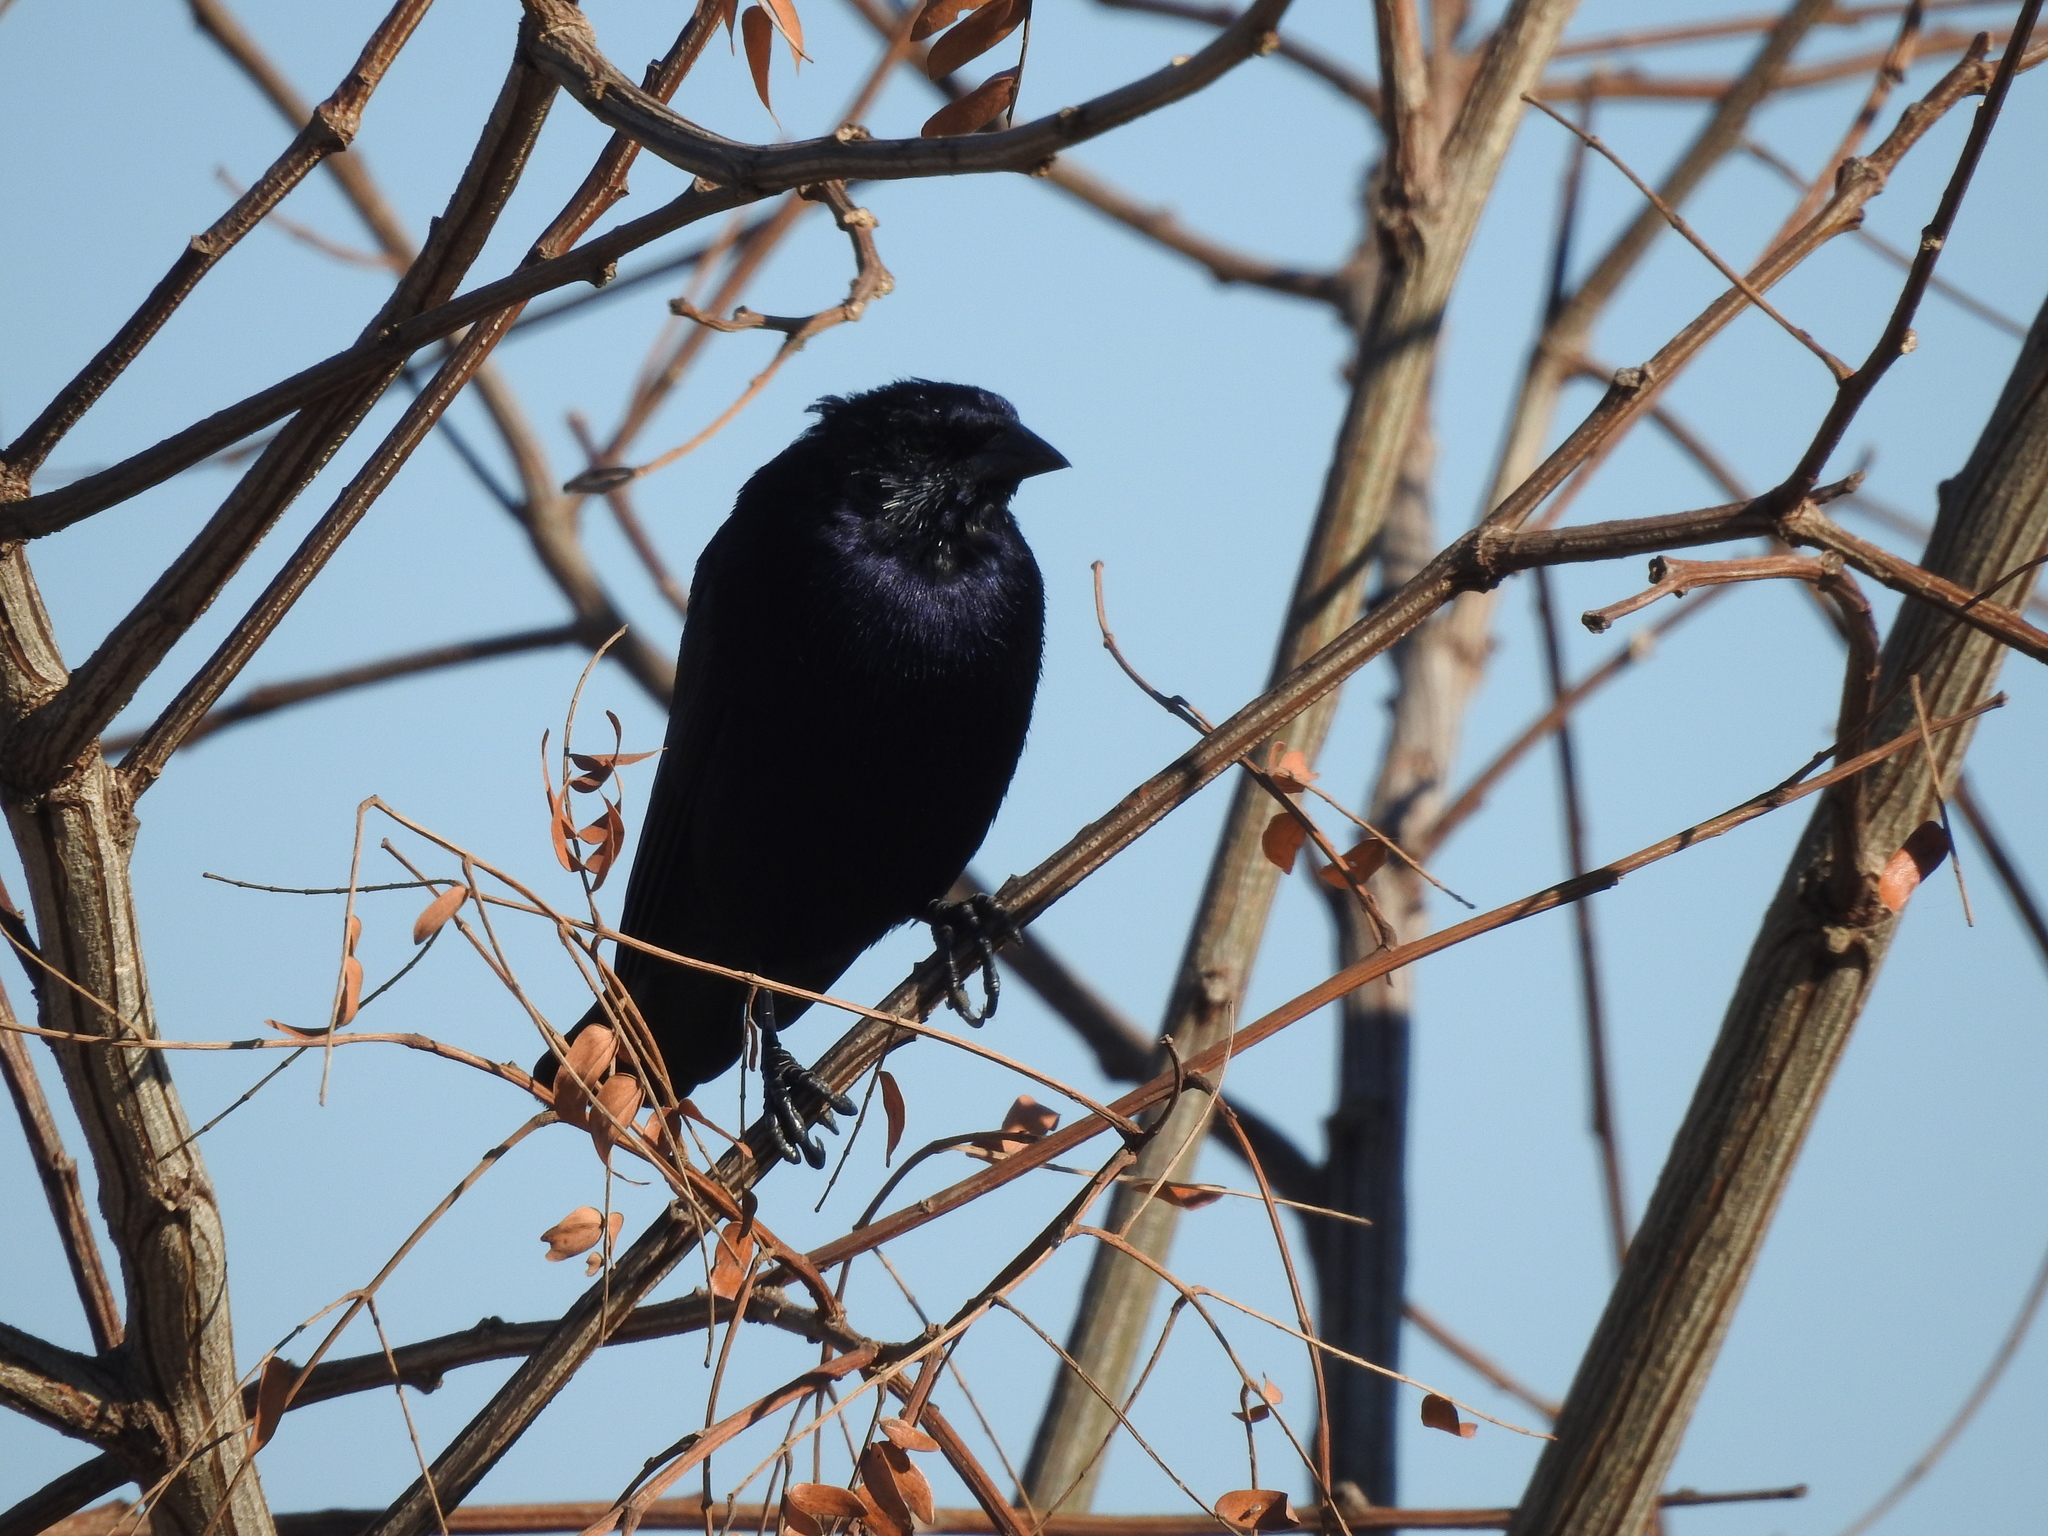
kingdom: Animalia
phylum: Chordata
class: Aves
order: Passeriformes
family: Icteridae
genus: Molothrus
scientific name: Molothrus bonariensis
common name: Shiny cowbird
